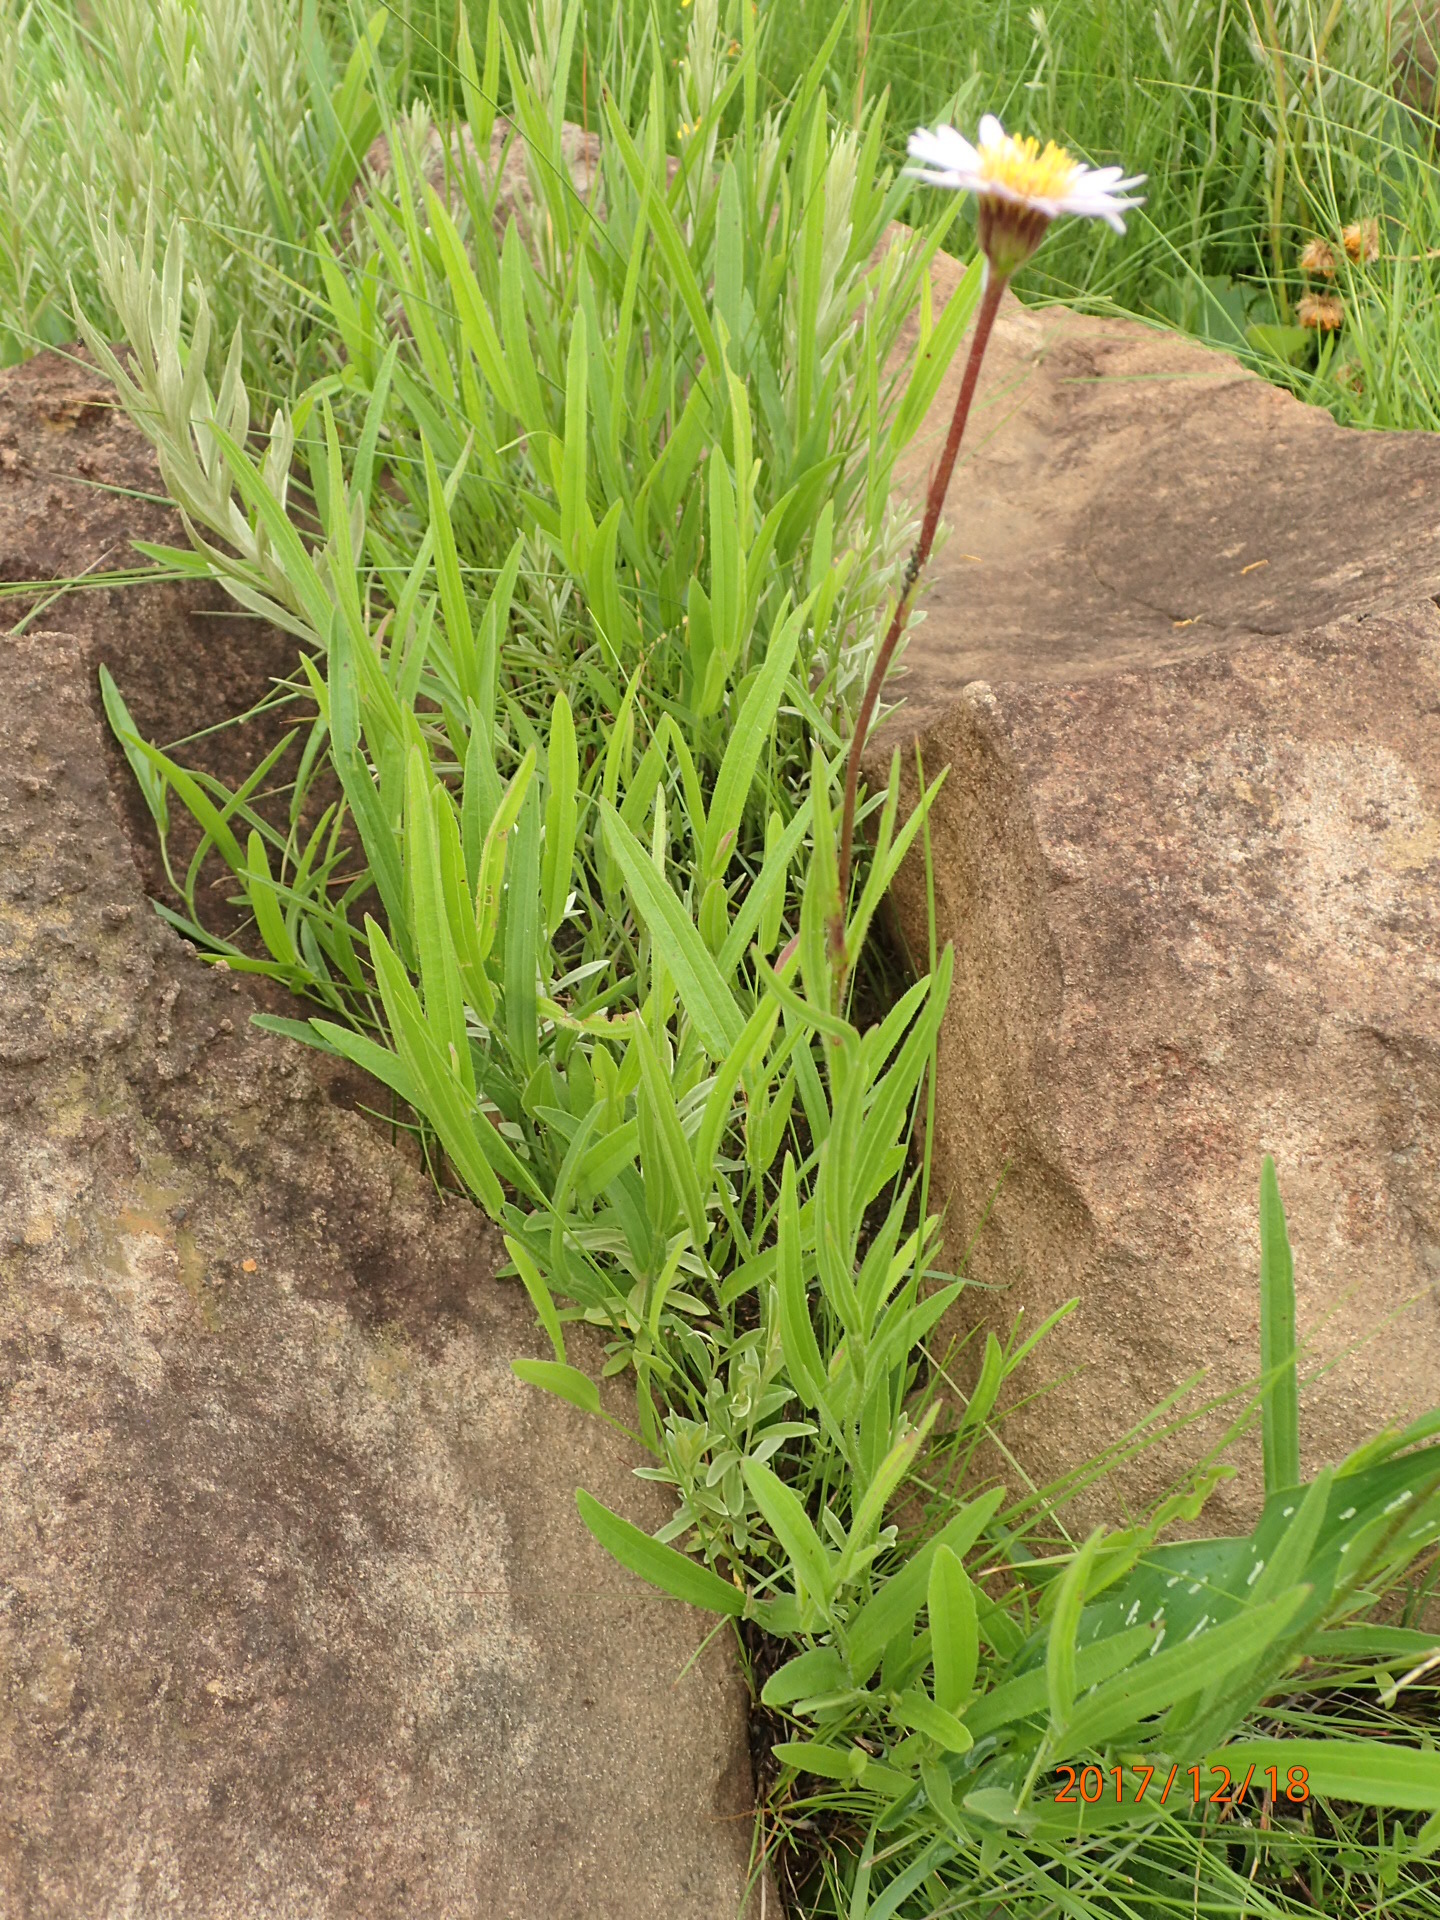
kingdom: Plantae
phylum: Tracheophyta
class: Magnoliopsida
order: Asterales
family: Asteraceae
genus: Afroaster
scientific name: Afroaster hispidus
